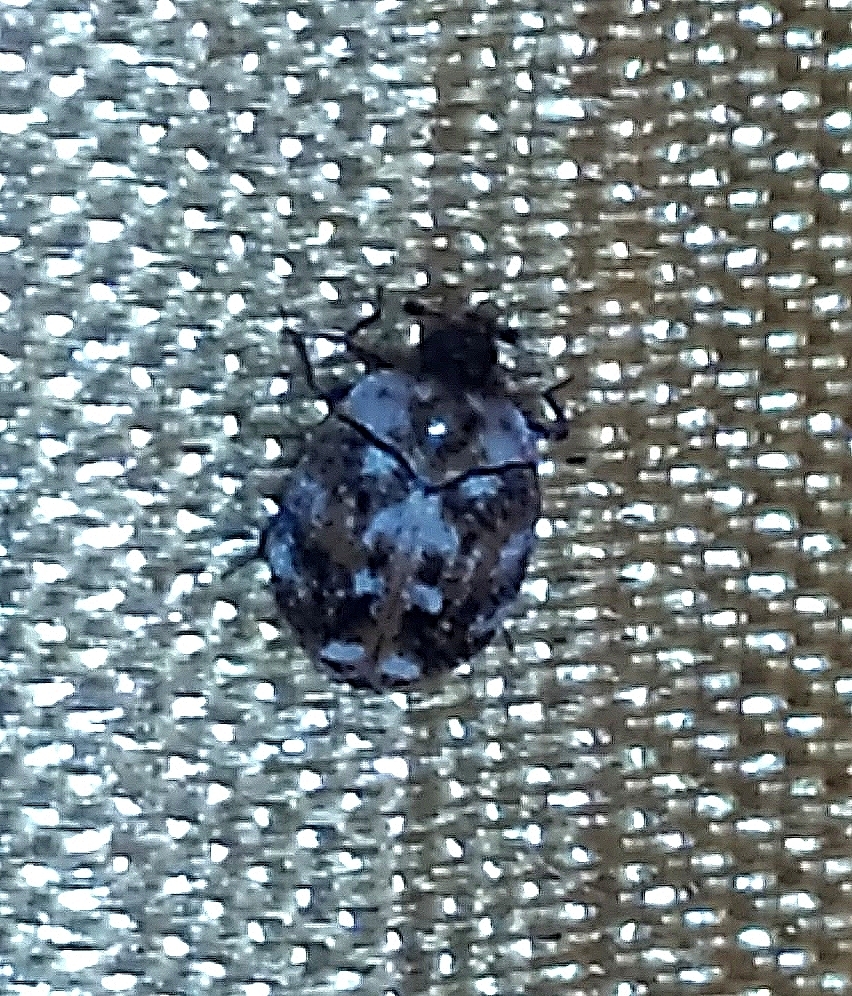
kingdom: Animalia
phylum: Arthropoda
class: Insecta
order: Coleoptera
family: Dermestidae
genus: Anthrenus
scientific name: Anthrenus picturatus
